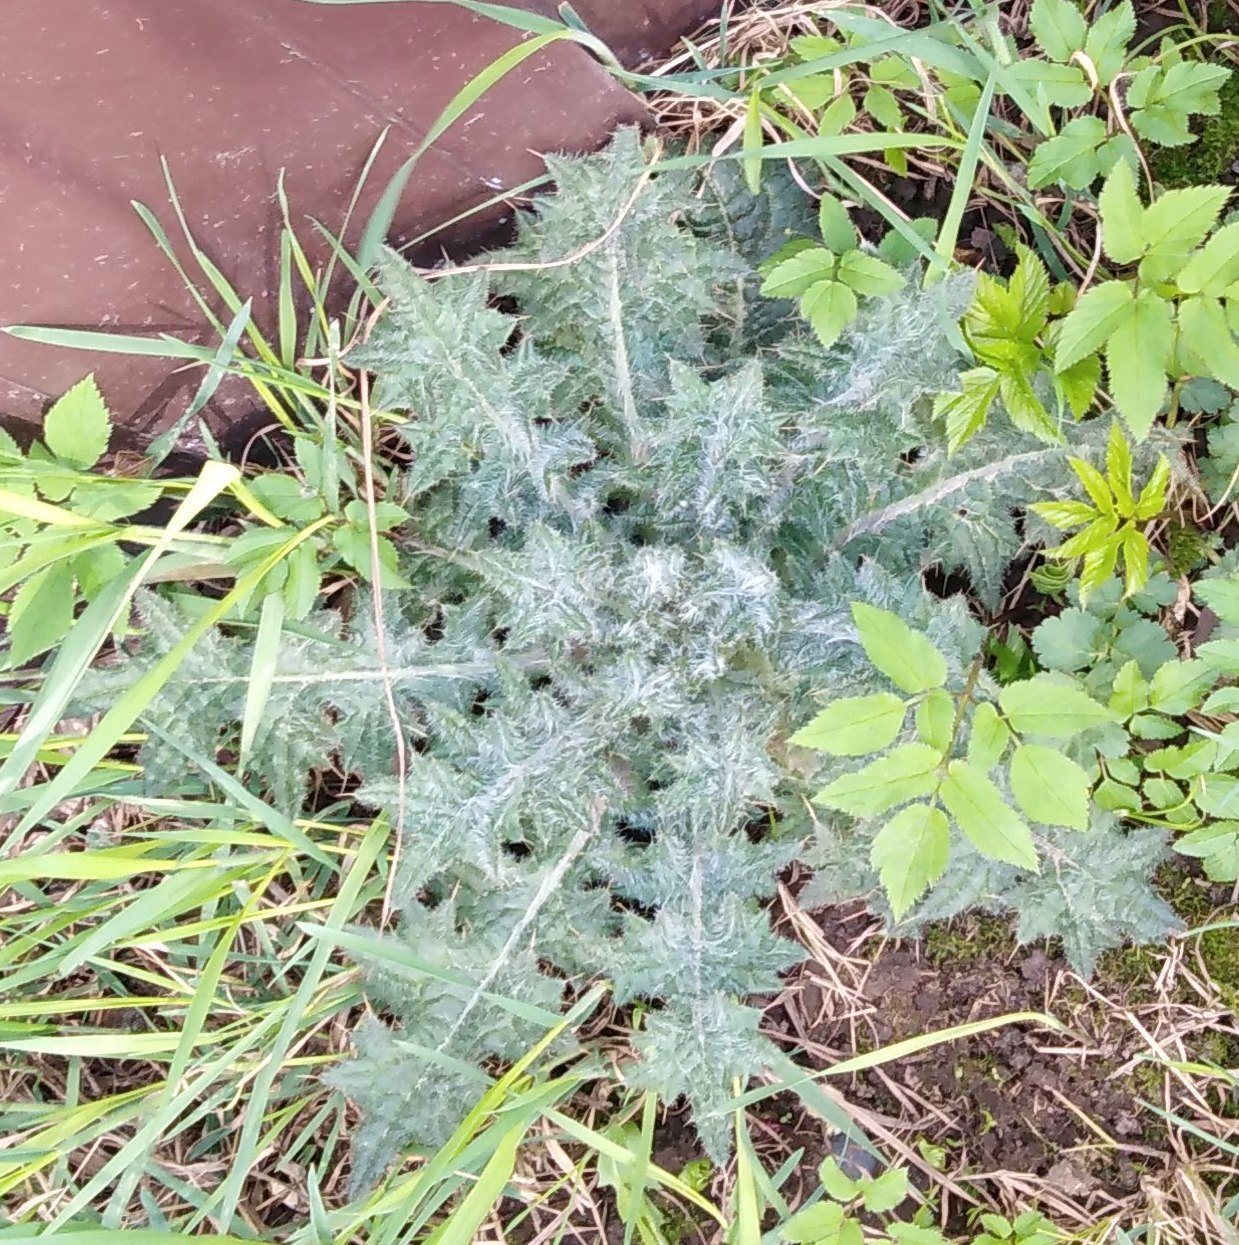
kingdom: Plantae
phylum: Tracheophyta
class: Magnoliopsida
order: Asterales
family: Asteraceae
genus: Cirsium
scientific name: Cirsium vulgare
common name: Bull thistle
